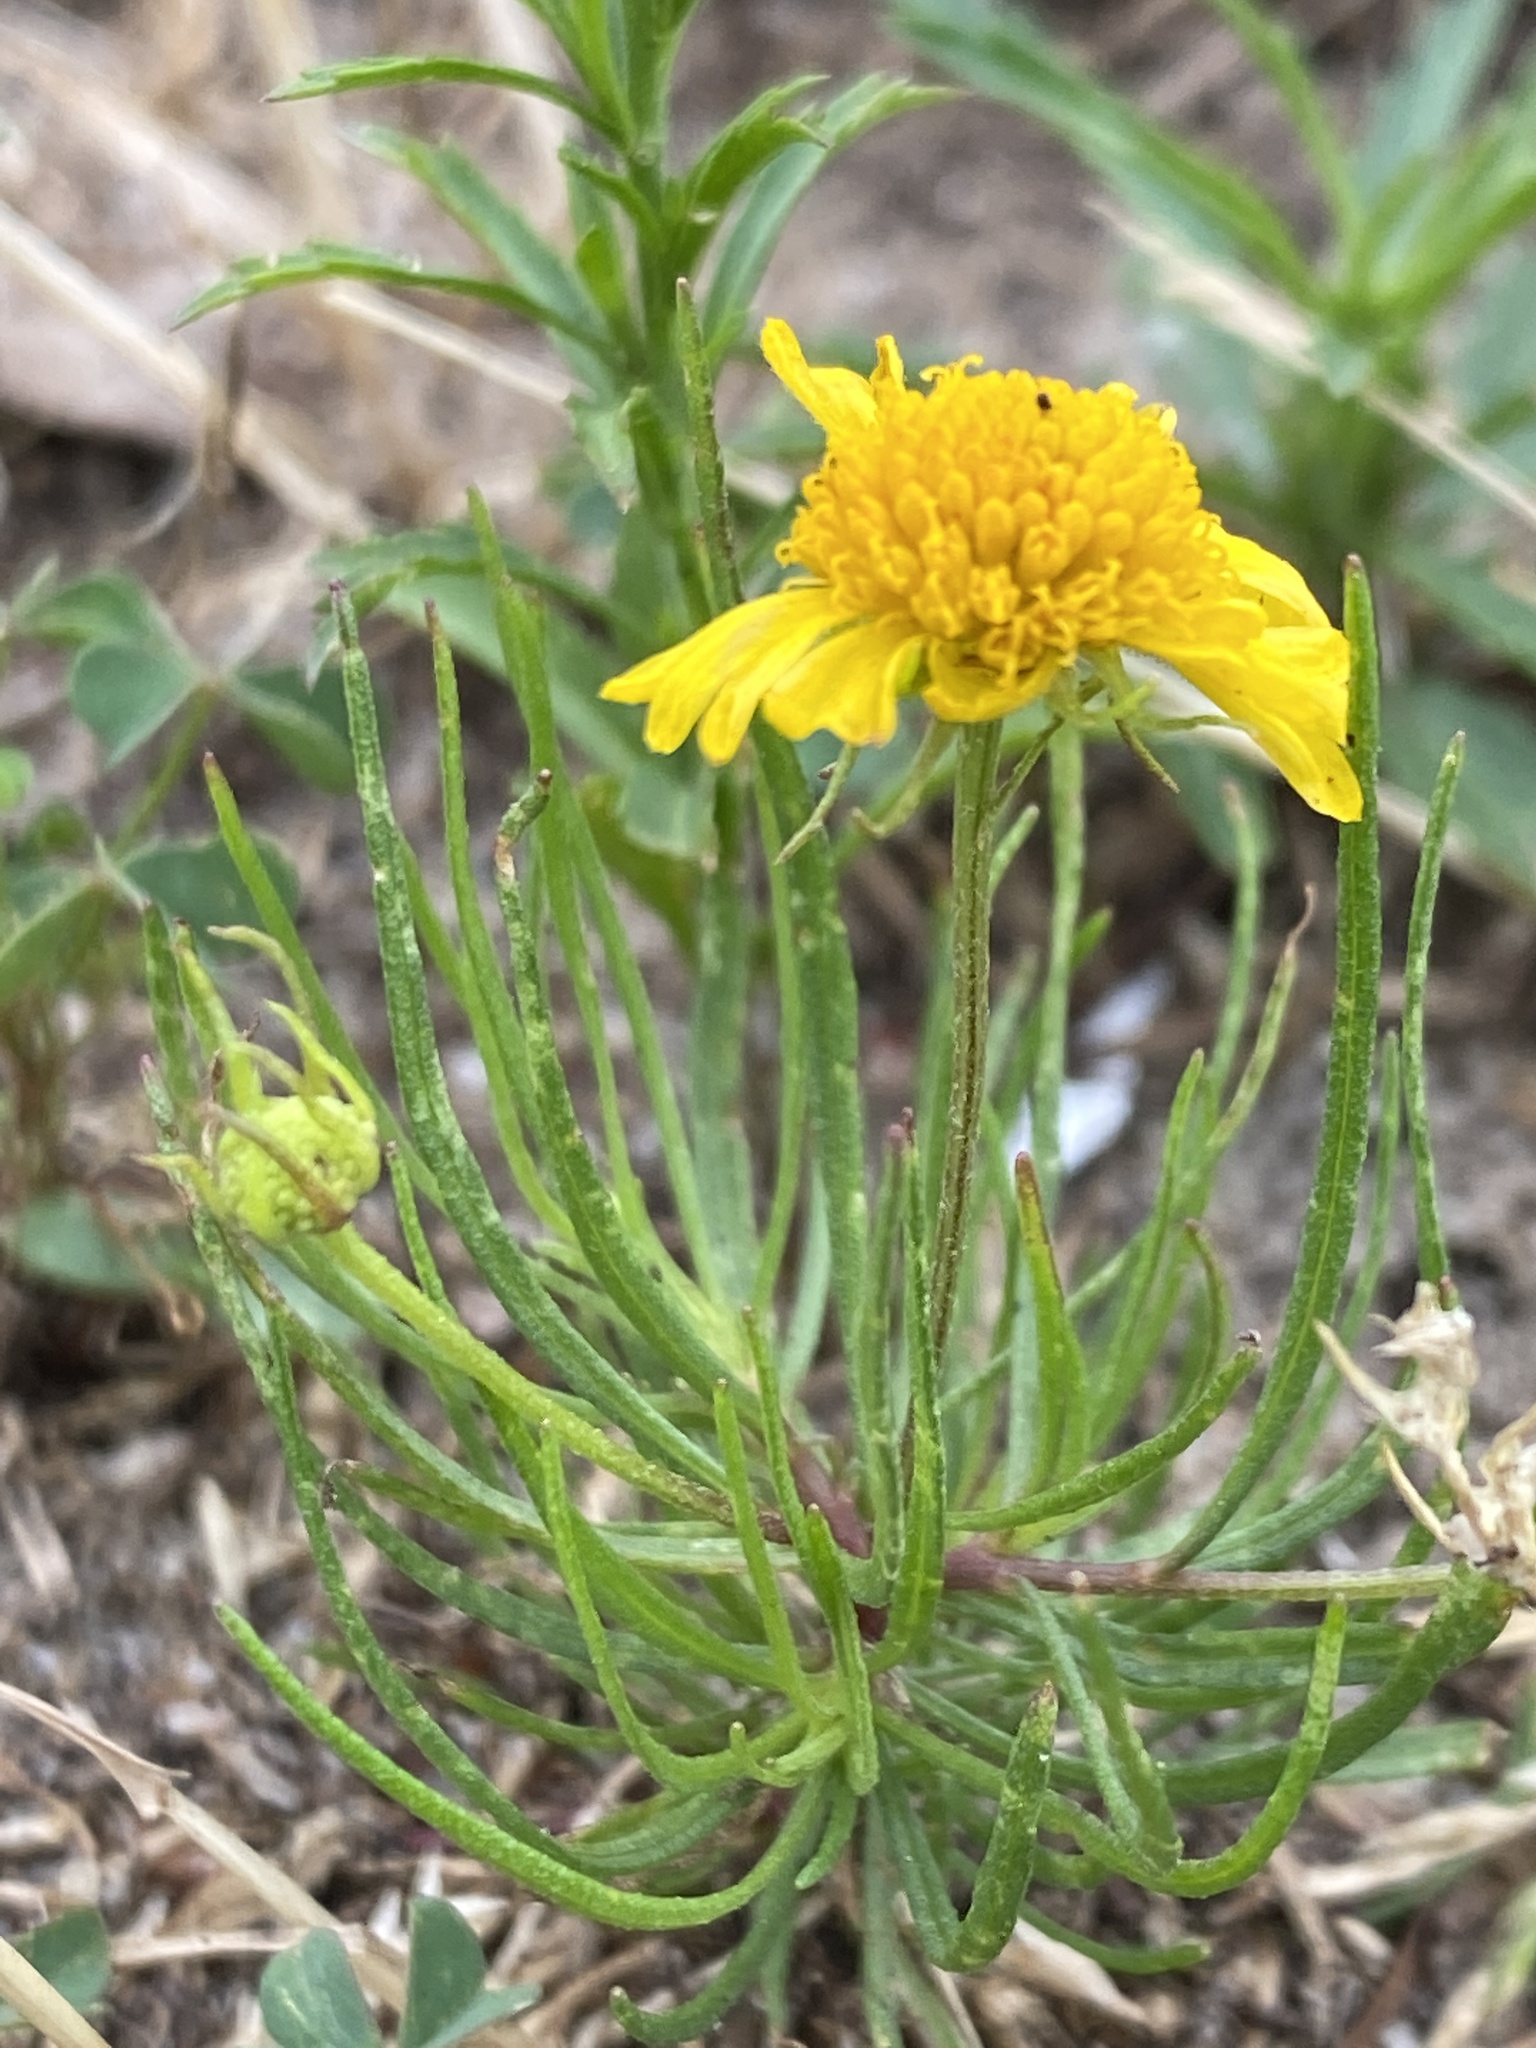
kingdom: Plantae
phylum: Tracheophyta
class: Magnoliopsida
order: Asterales
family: Asteraceae
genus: Helenium
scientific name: Helenium amarum
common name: Bitter sneezeweed
